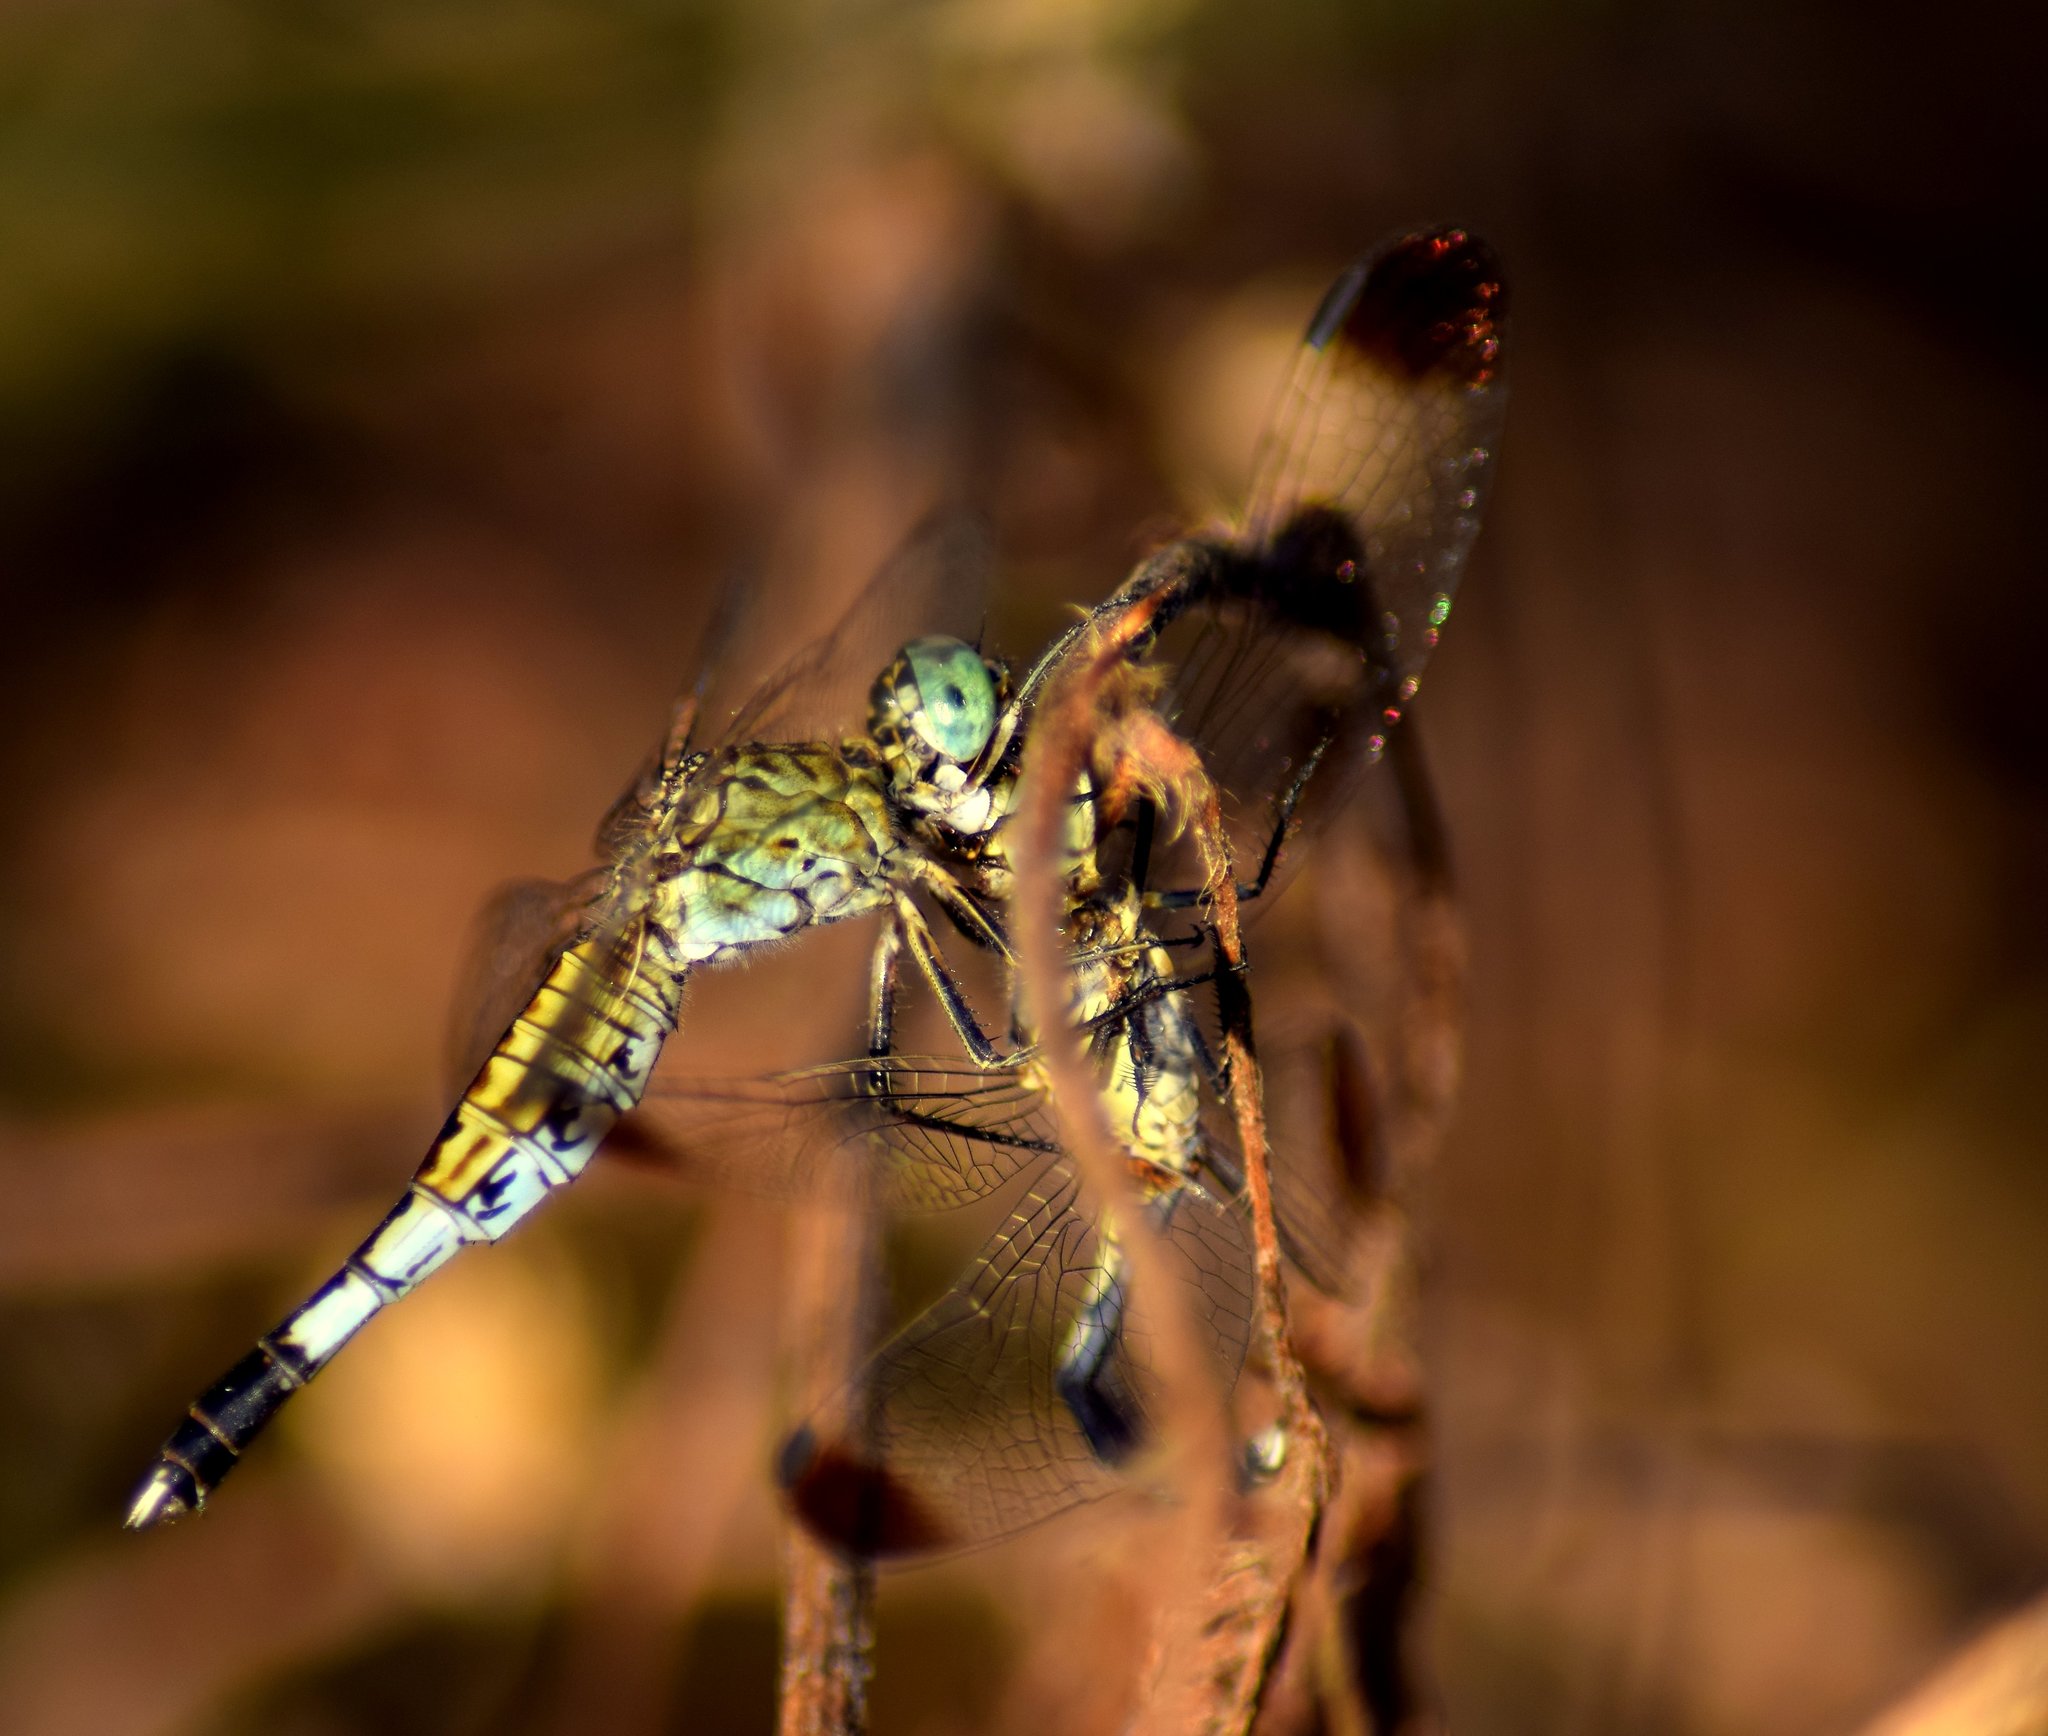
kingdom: Animalia
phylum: Arthropoda
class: Insecta
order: Odonata
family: Libellulidae
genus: Acisoma
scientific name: Acisoma panorpoides
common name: Asian pintail
